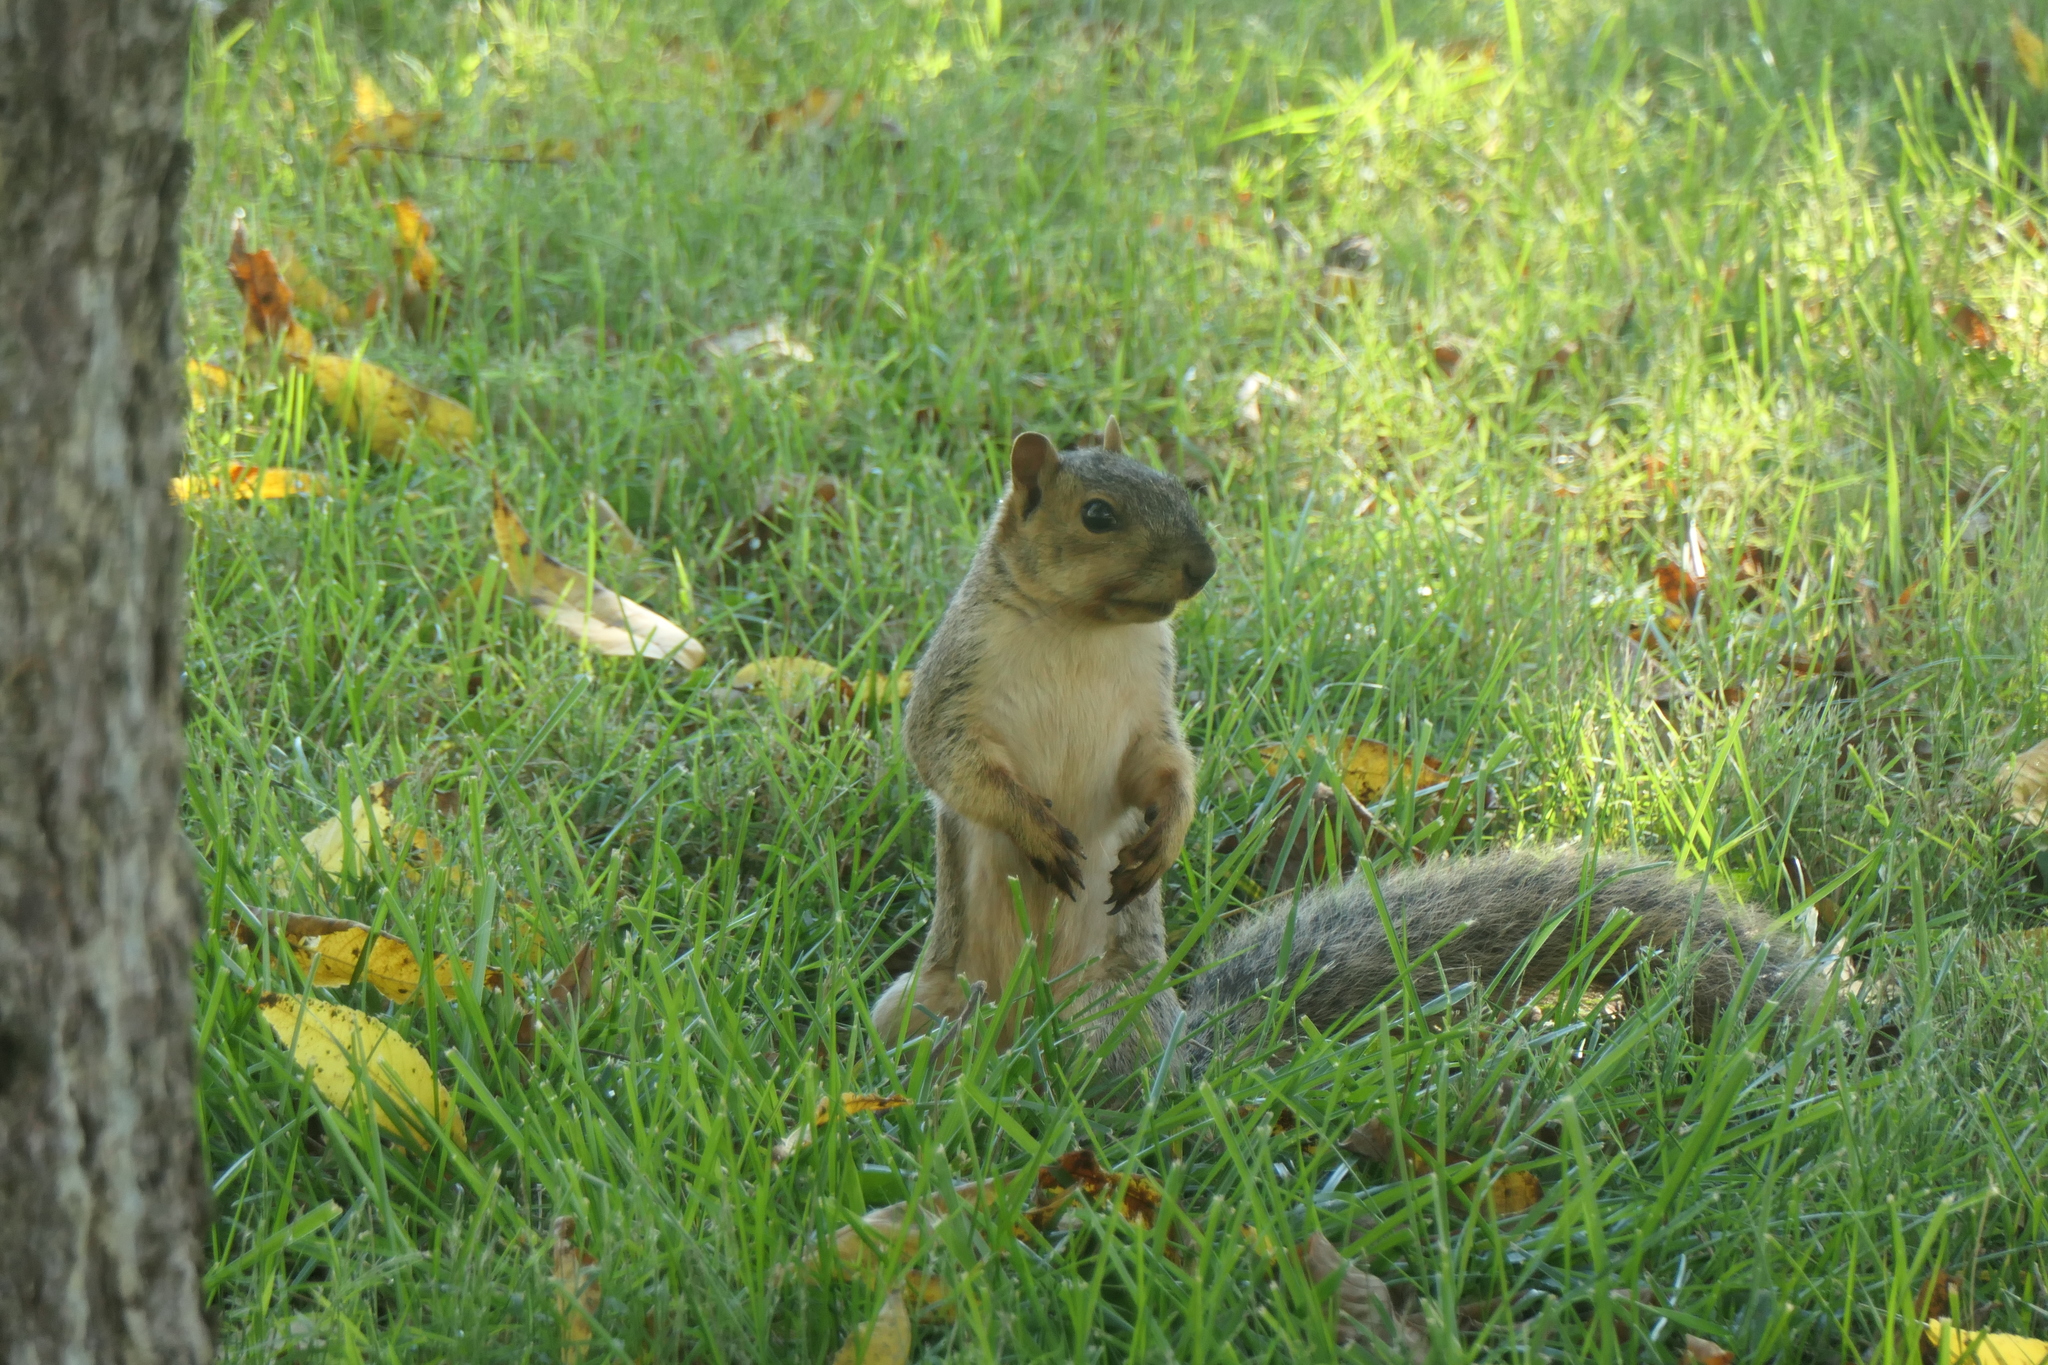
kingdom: Animalia
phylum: Chordata
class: Mammalia
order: Rodentia
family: Sciuridae
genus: Sciurus
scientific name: Sciurus niger
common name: Fox squirrel
